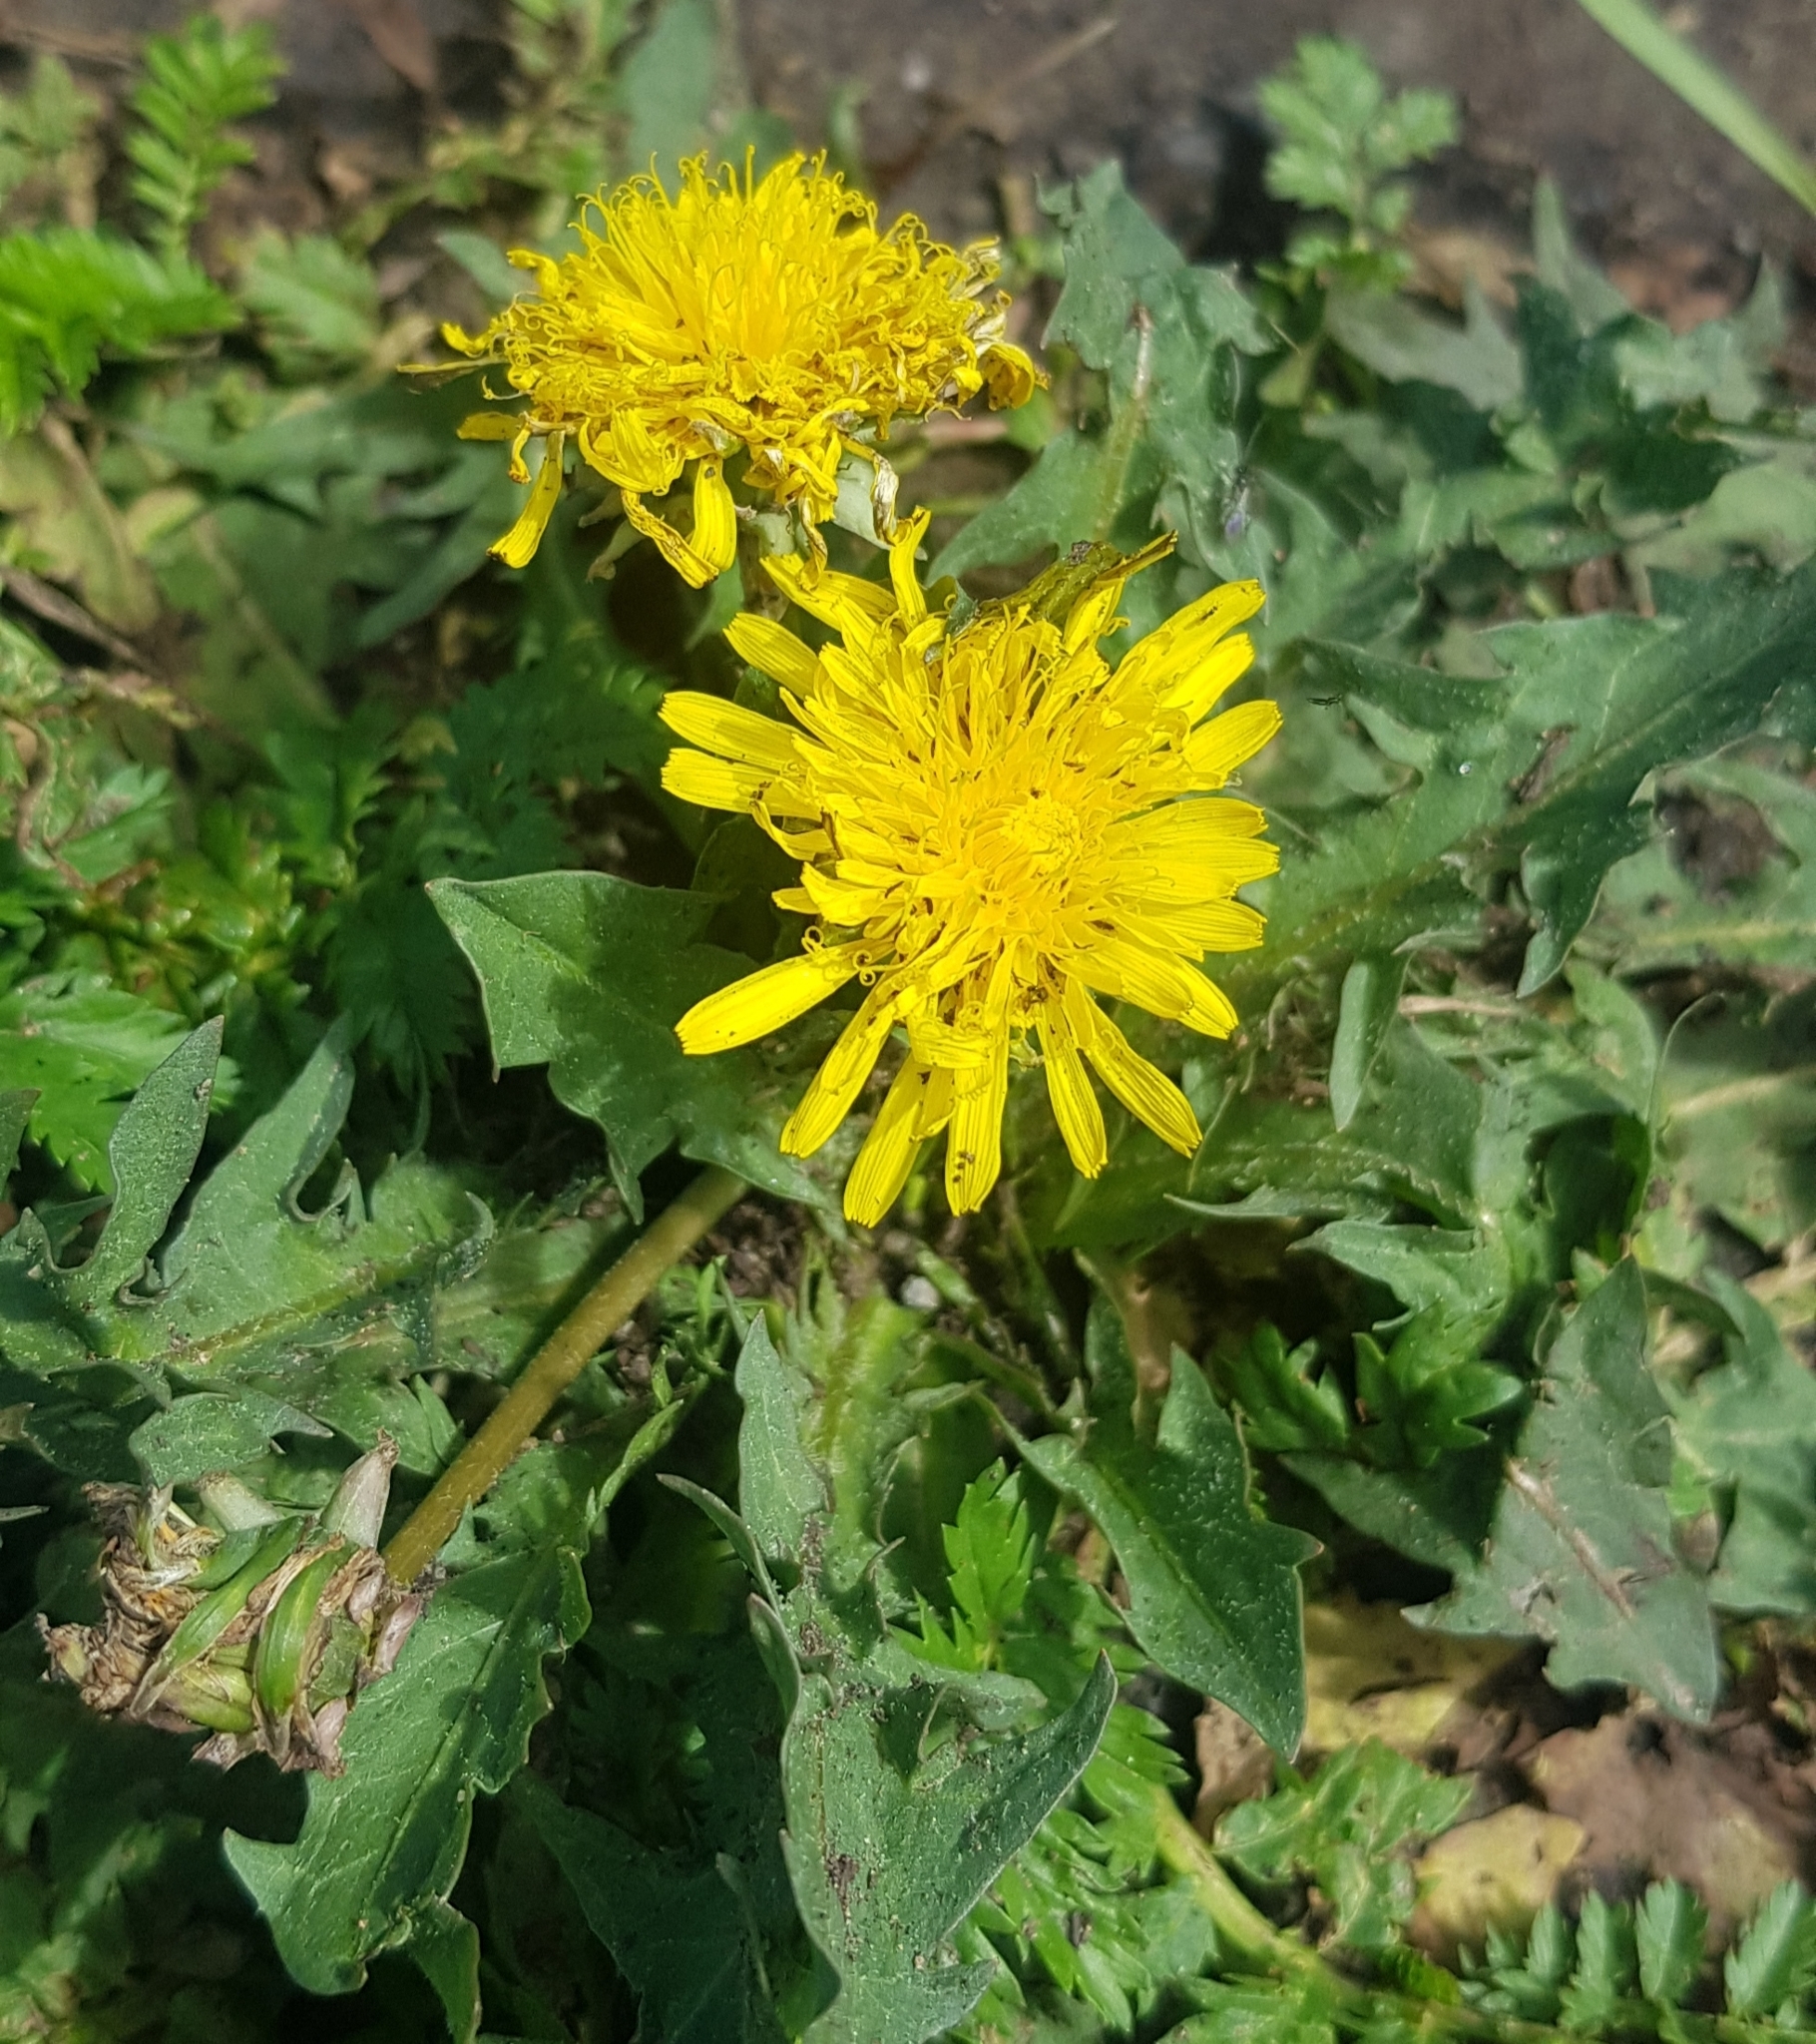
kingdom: Plantae
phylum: Tracheophyta
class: Magnoliopsida
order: Asterales
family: Asteraceae
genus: Taraxacum
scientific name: Taraxacum officinale
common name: Common dandelion
